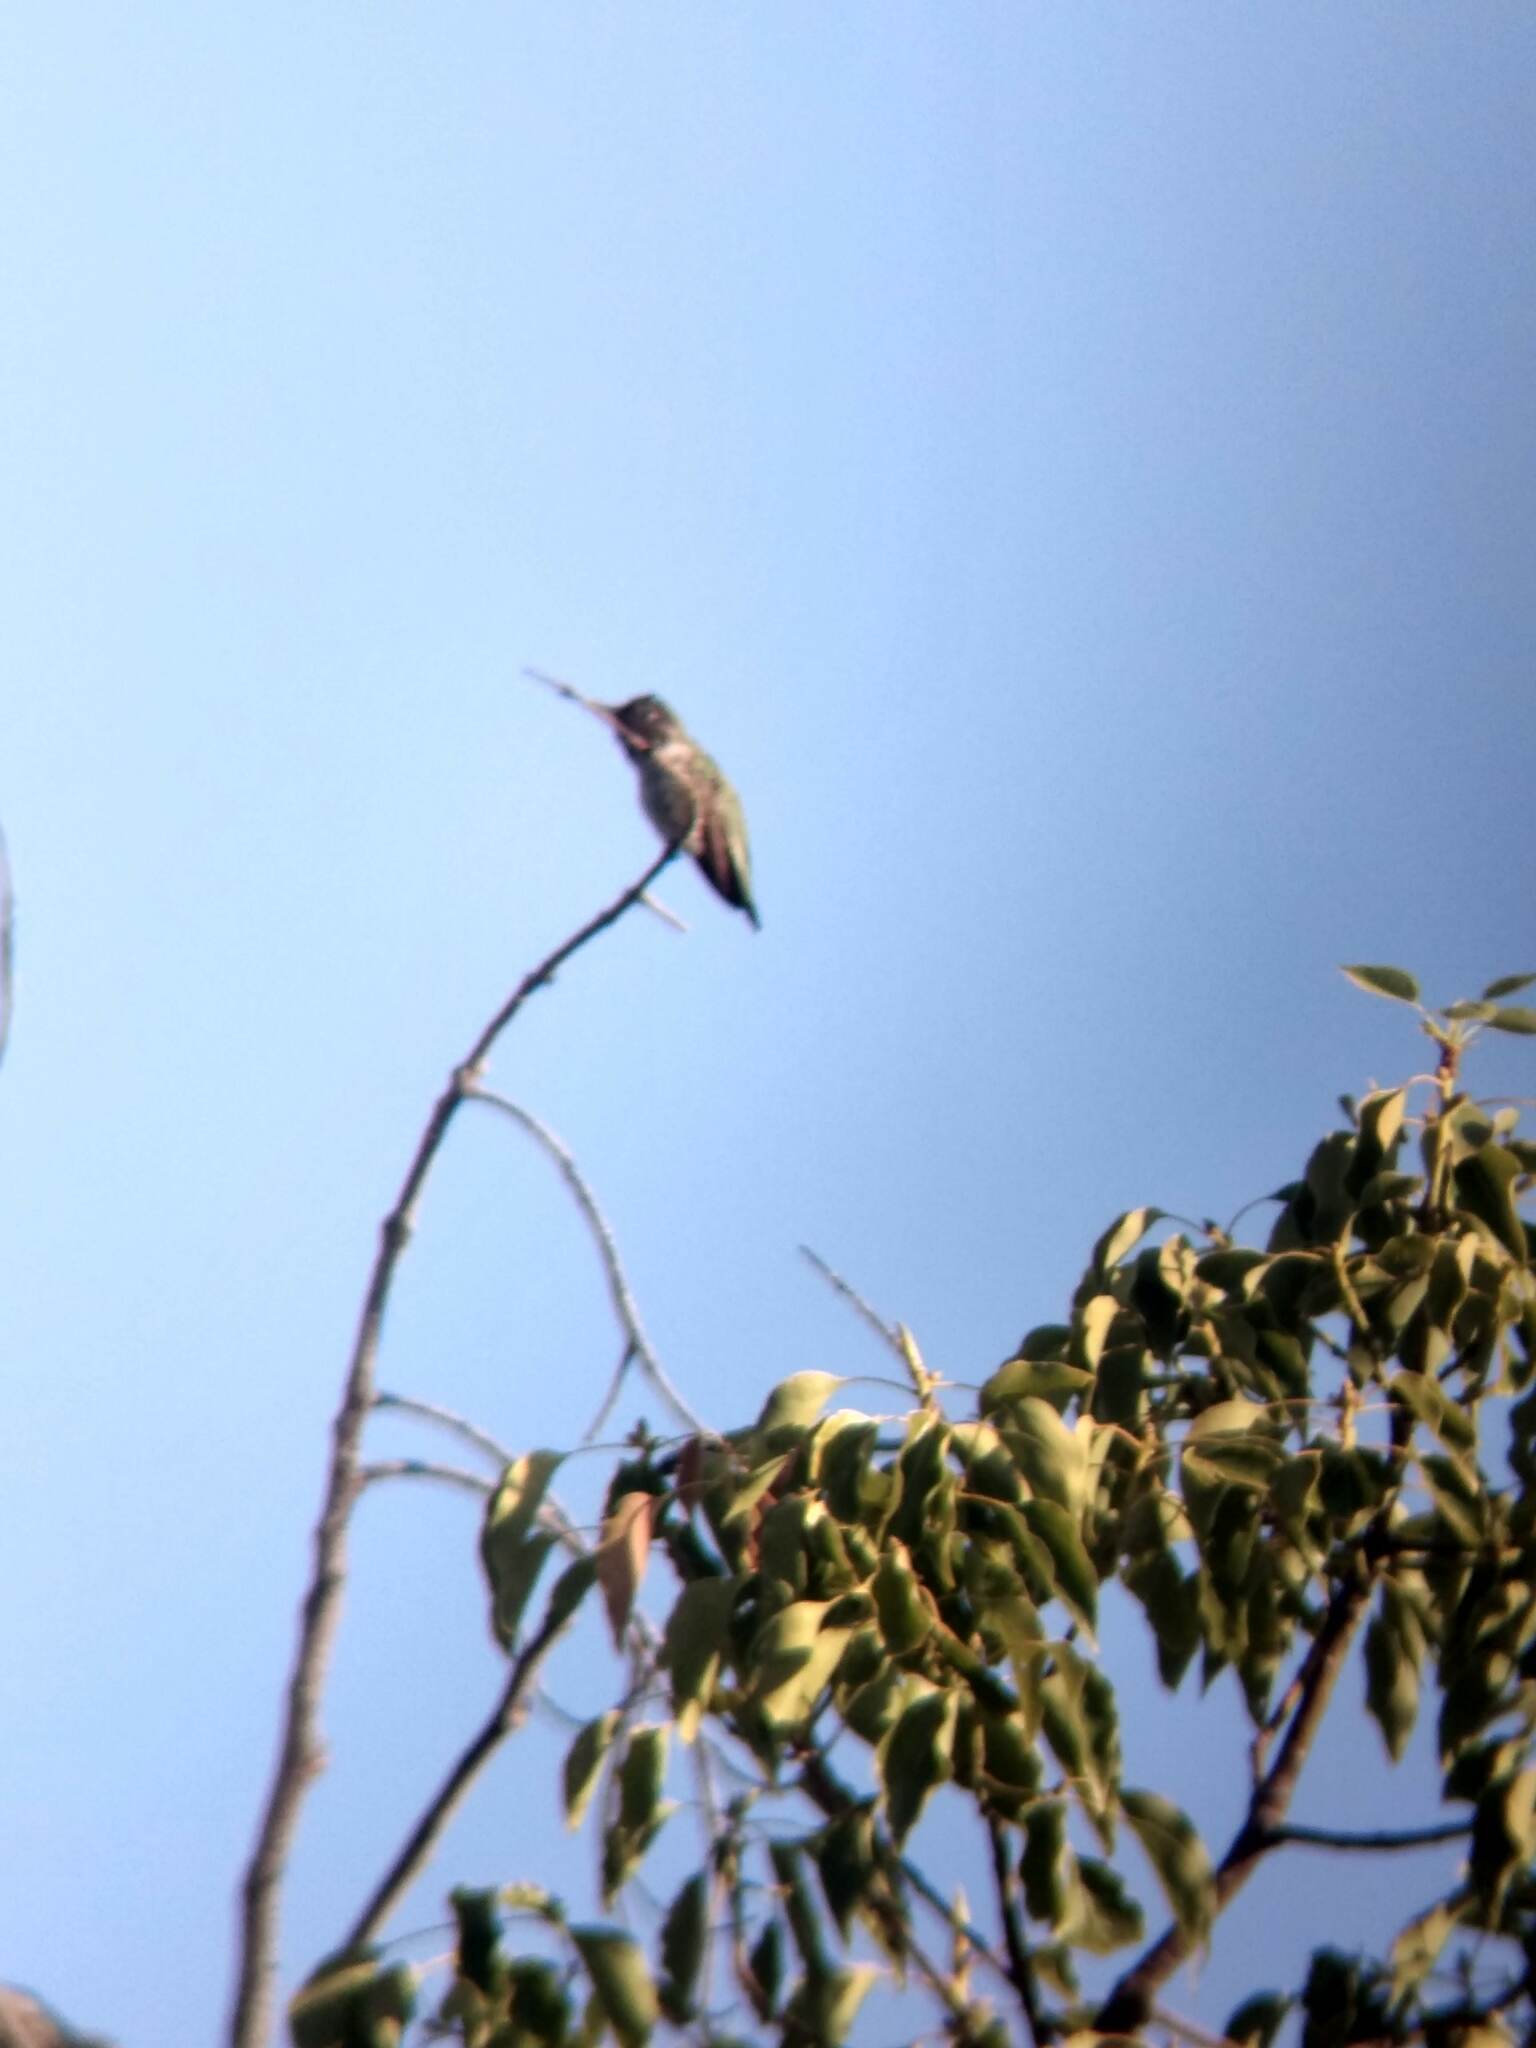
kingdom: Animalia
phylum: Chordata
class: Aves
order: Apodiformes
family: Trochilidae
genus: Calypte
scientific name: Calypte anna
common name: Anna's hummingbird
